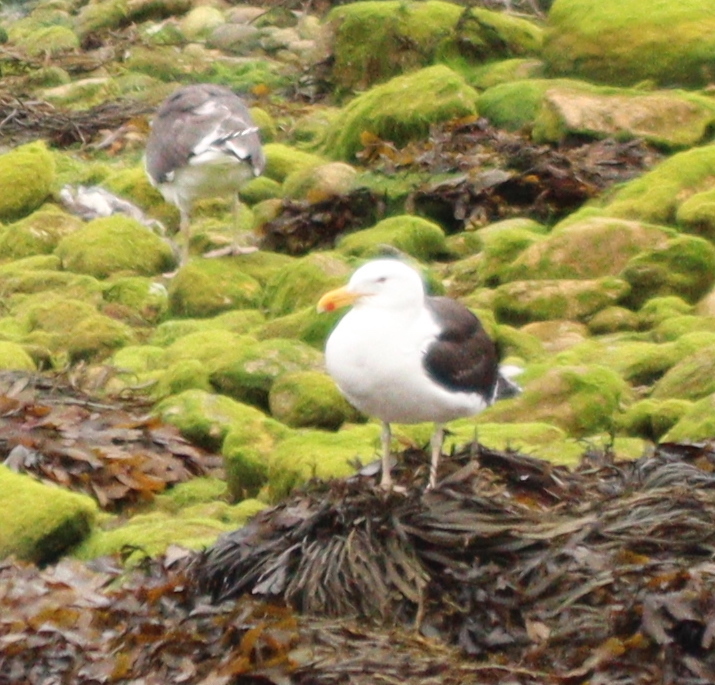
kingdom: Animalia
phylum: Chordata
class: Aves
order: Charadriiformes
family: Laridae
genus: Larus
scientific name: Larus marinus
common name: Great black-backed gull
